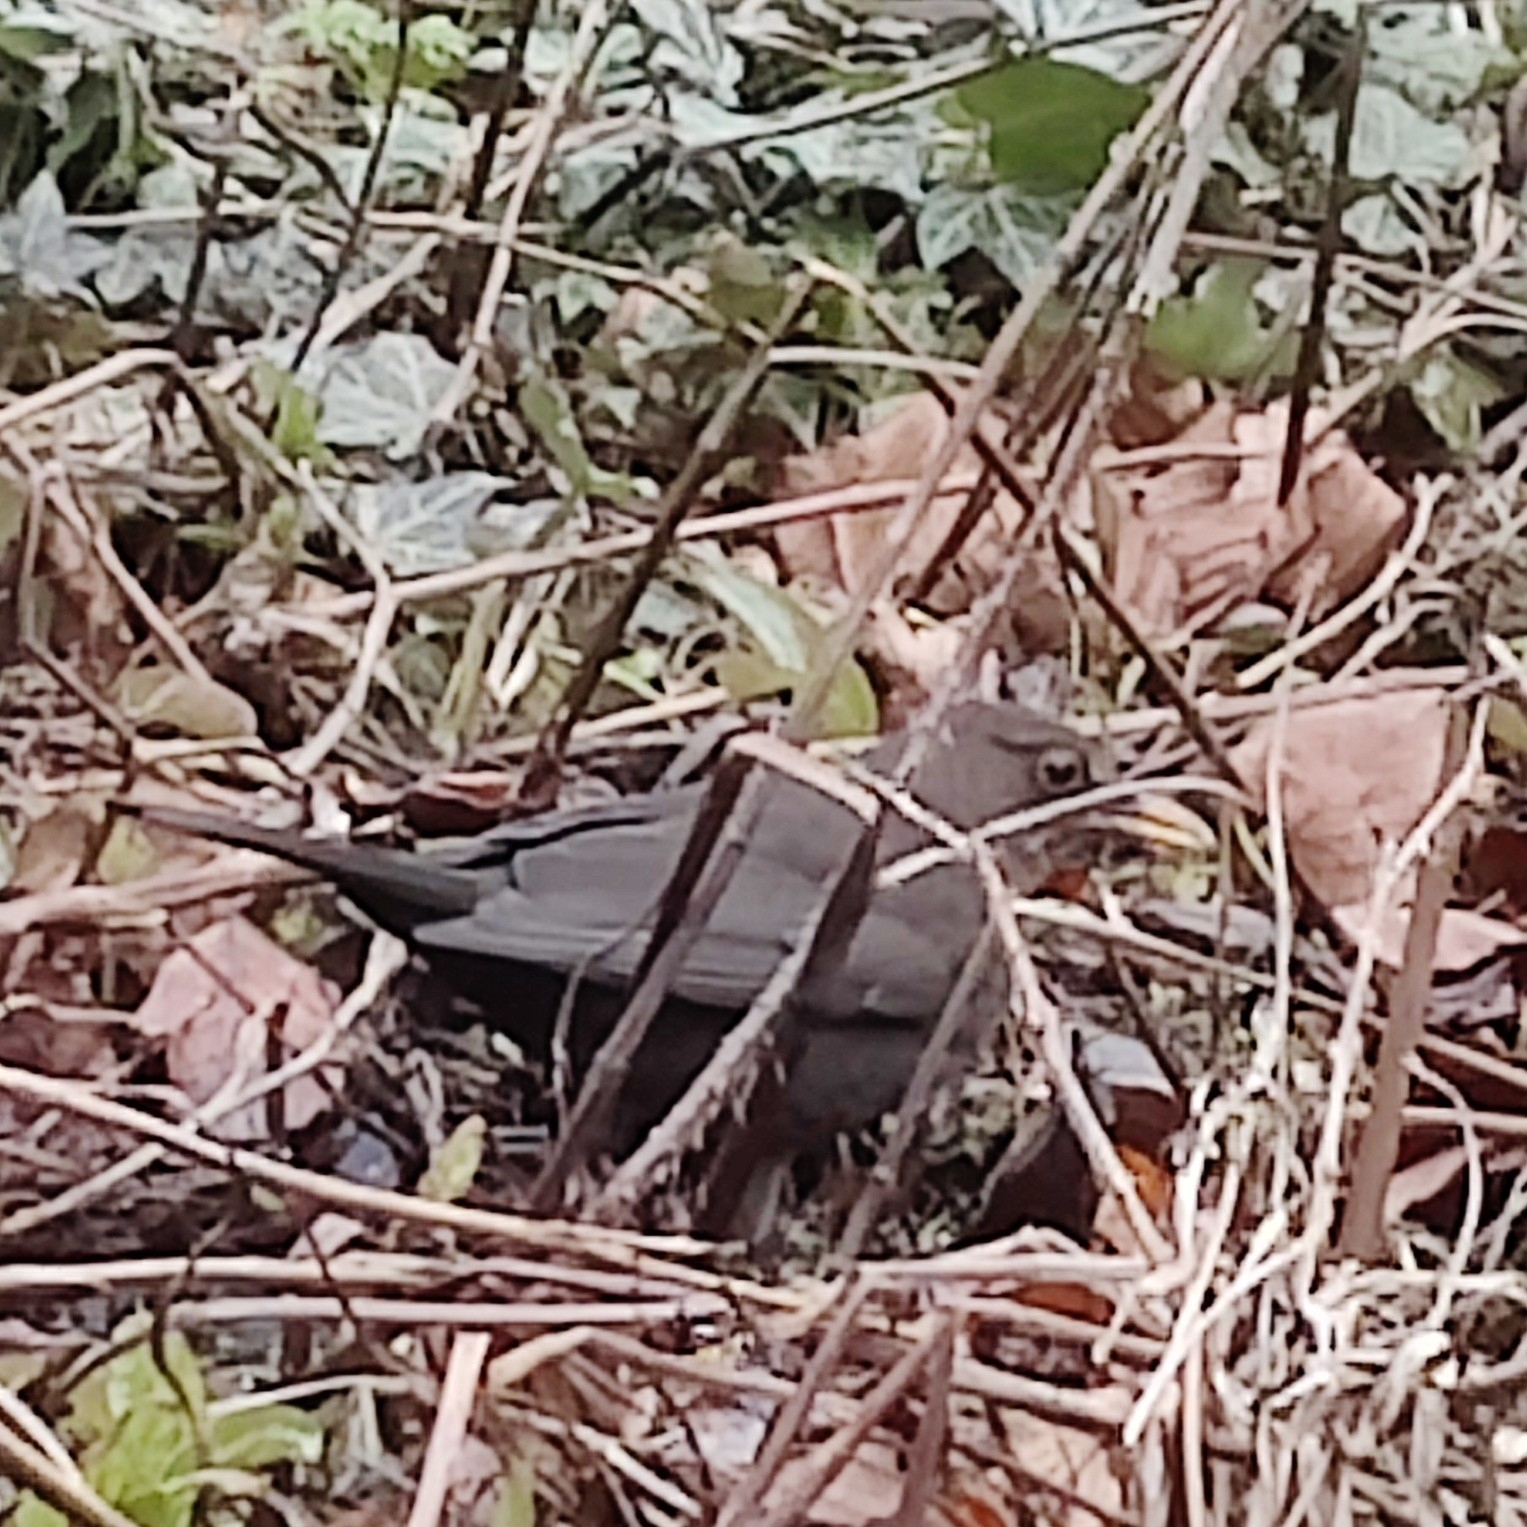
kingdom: Animalia
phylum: Chordata
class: Aves
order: Passeriformes
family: Turdidae
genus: Turdus
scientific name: Turdus merula
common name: Common blackbird
